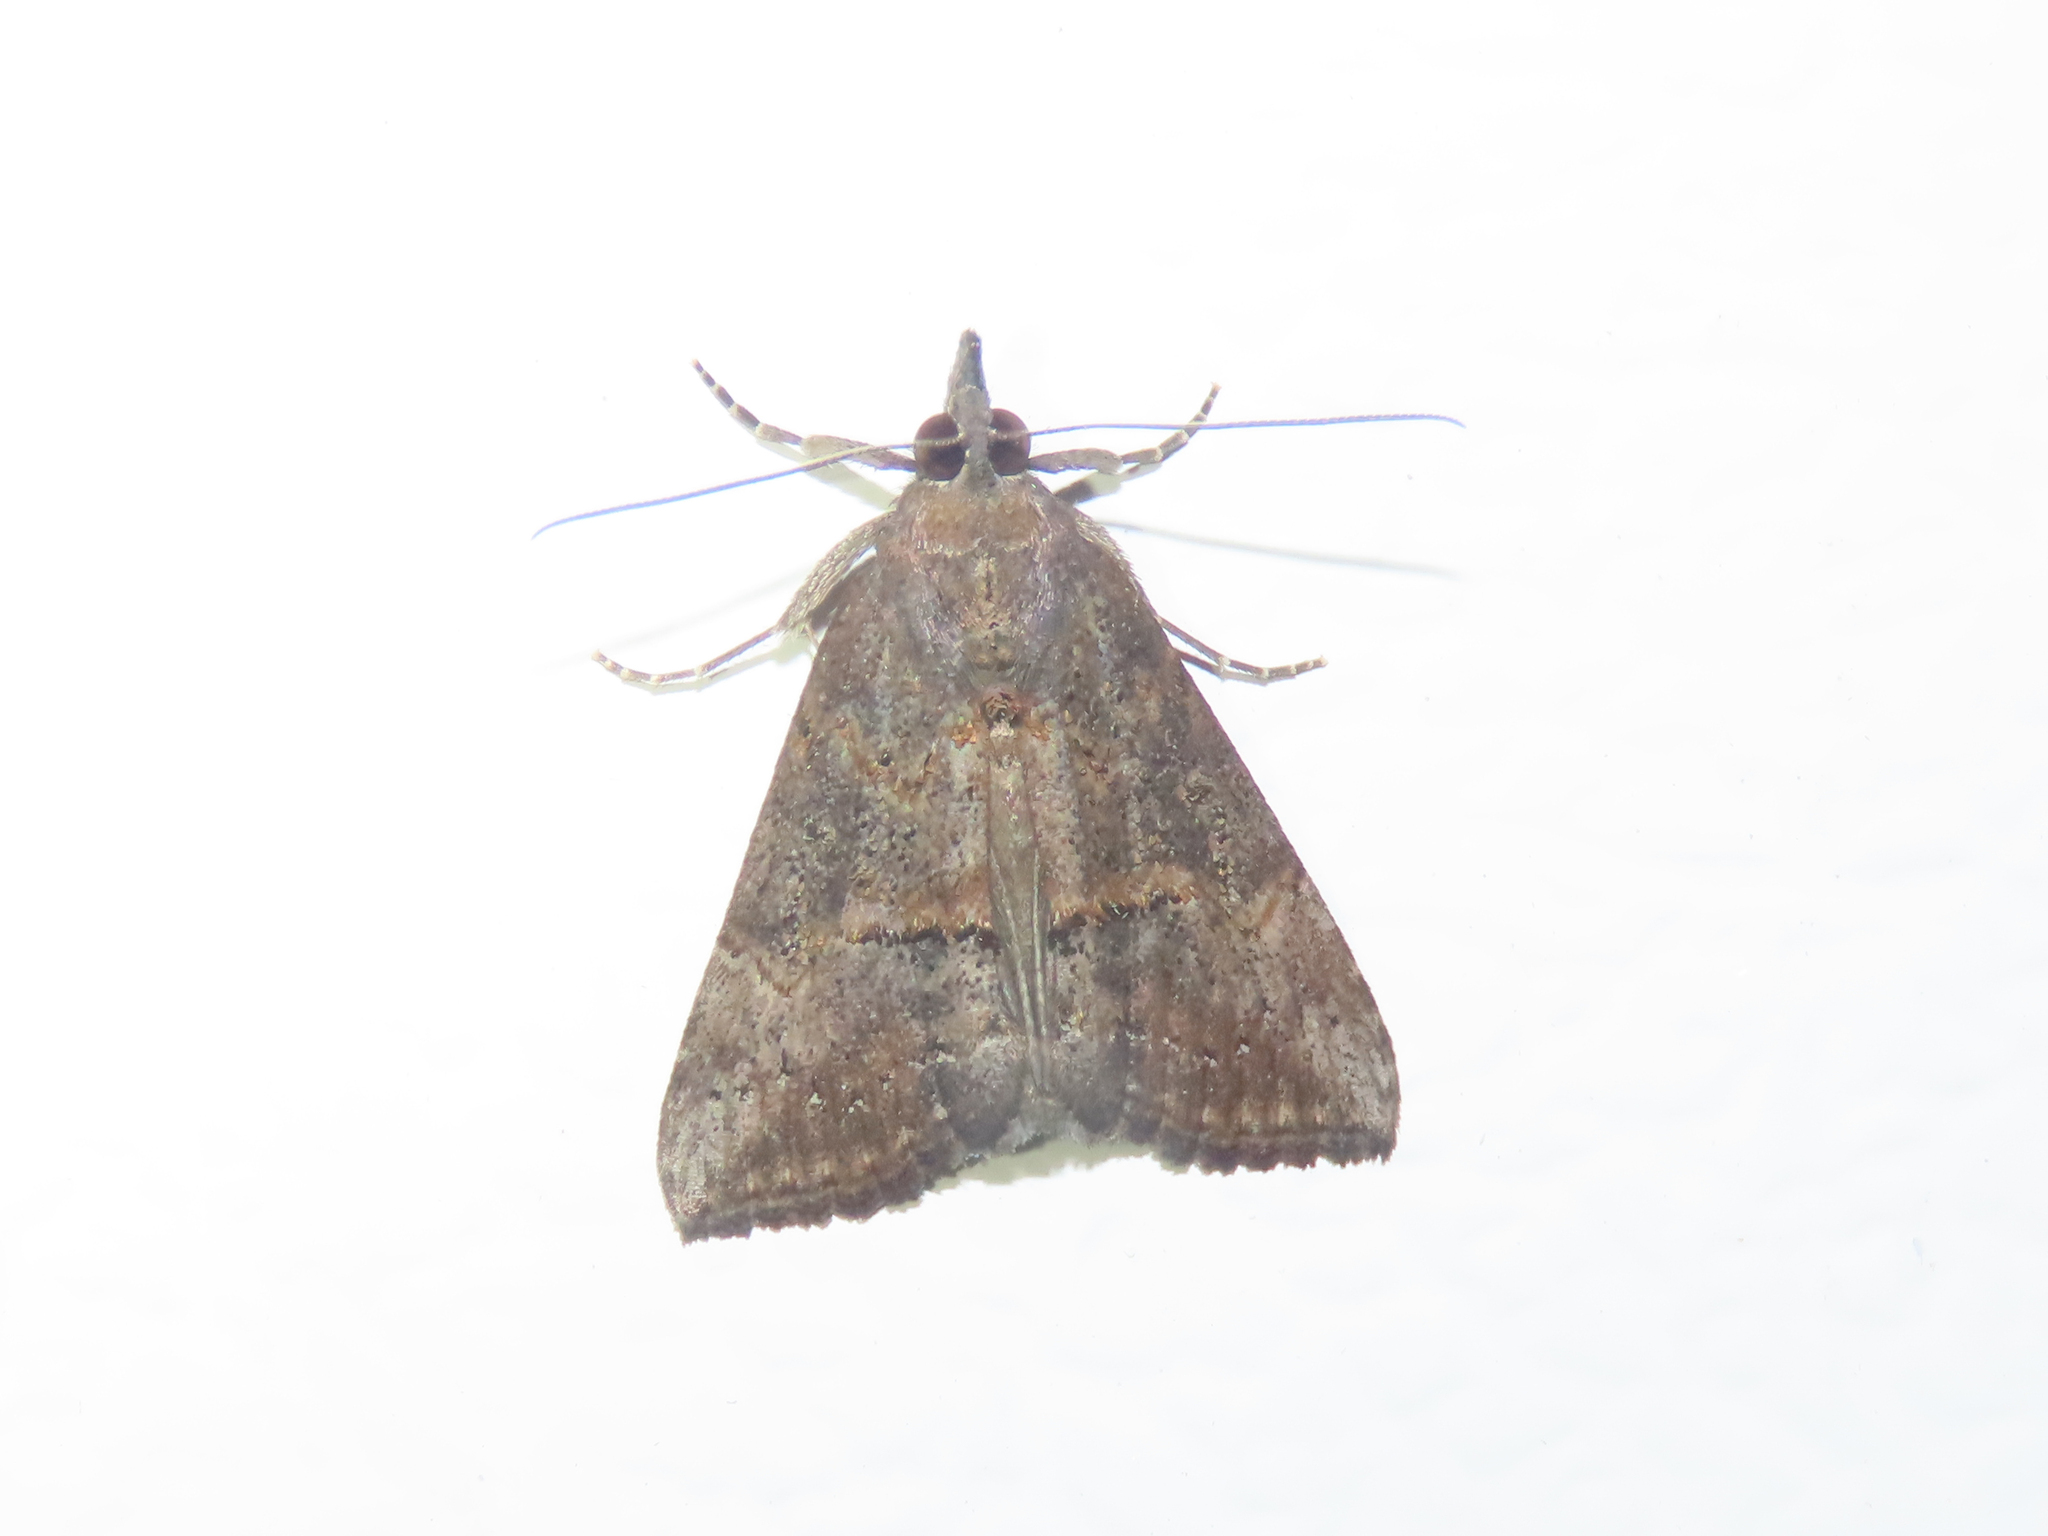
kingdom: Animalia
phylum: Arthropoda
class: Insecta
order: Lepidoptera
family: Erebidae
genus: Hypena
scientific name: Hypena scabra
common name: Green cloverworm
